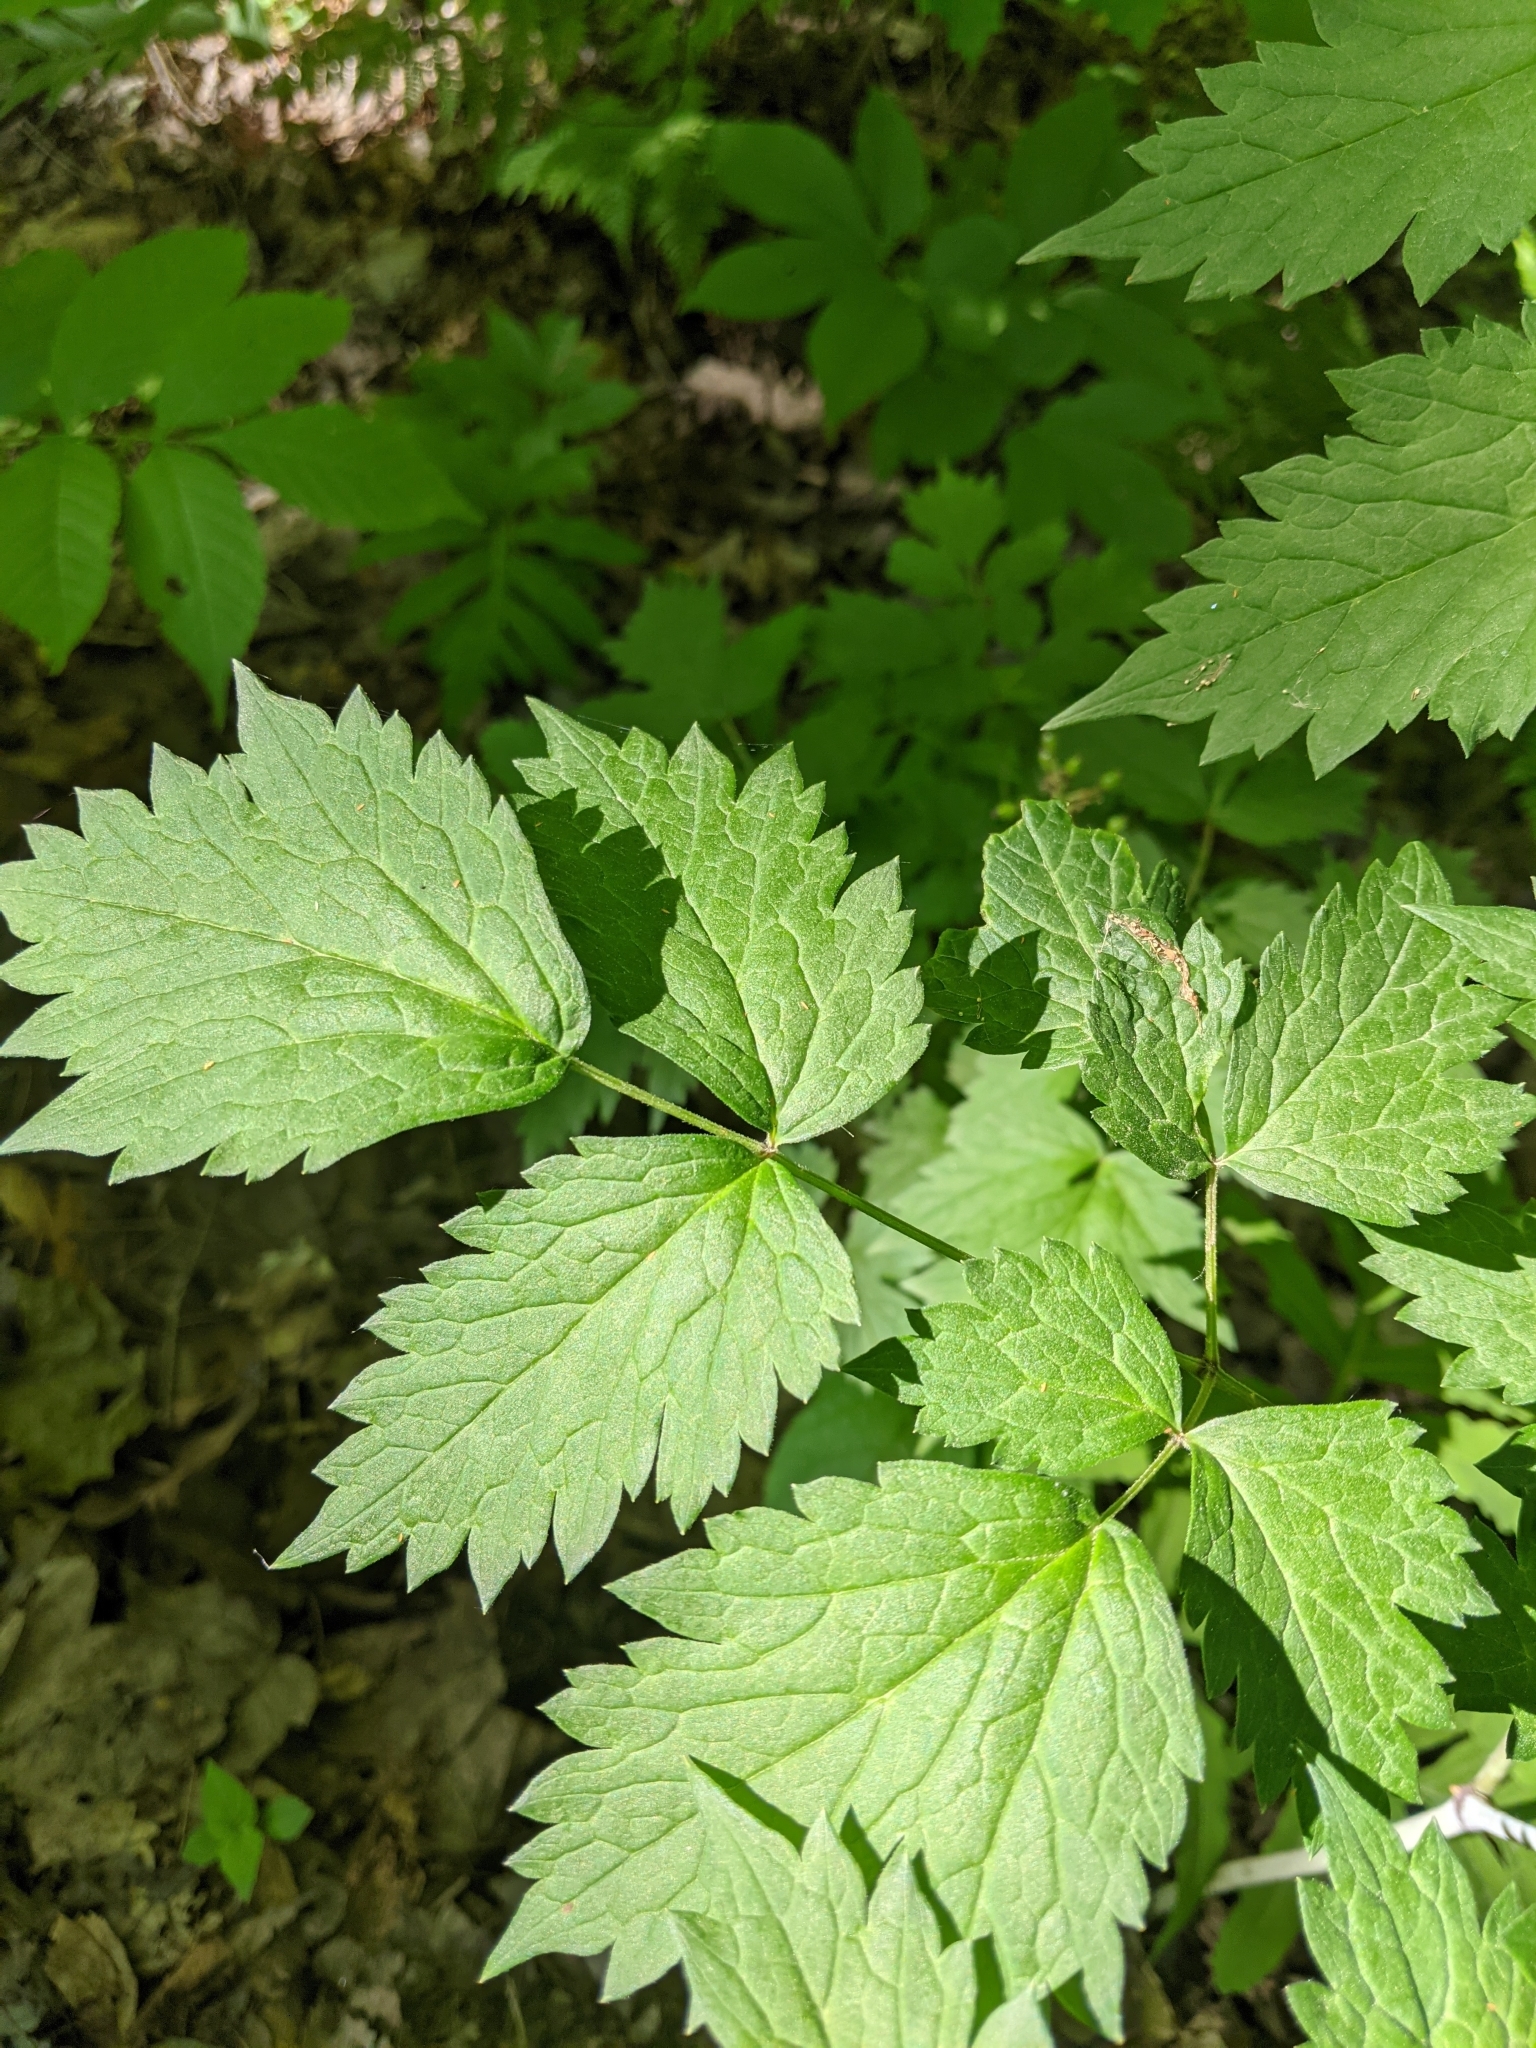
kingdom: Plantae
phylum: Tracheophyta
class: Magnoliopsida
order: Ranunculales
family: Ranunculaceae
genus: Actaea
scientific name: Actaea rubra
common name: Red baneberry
